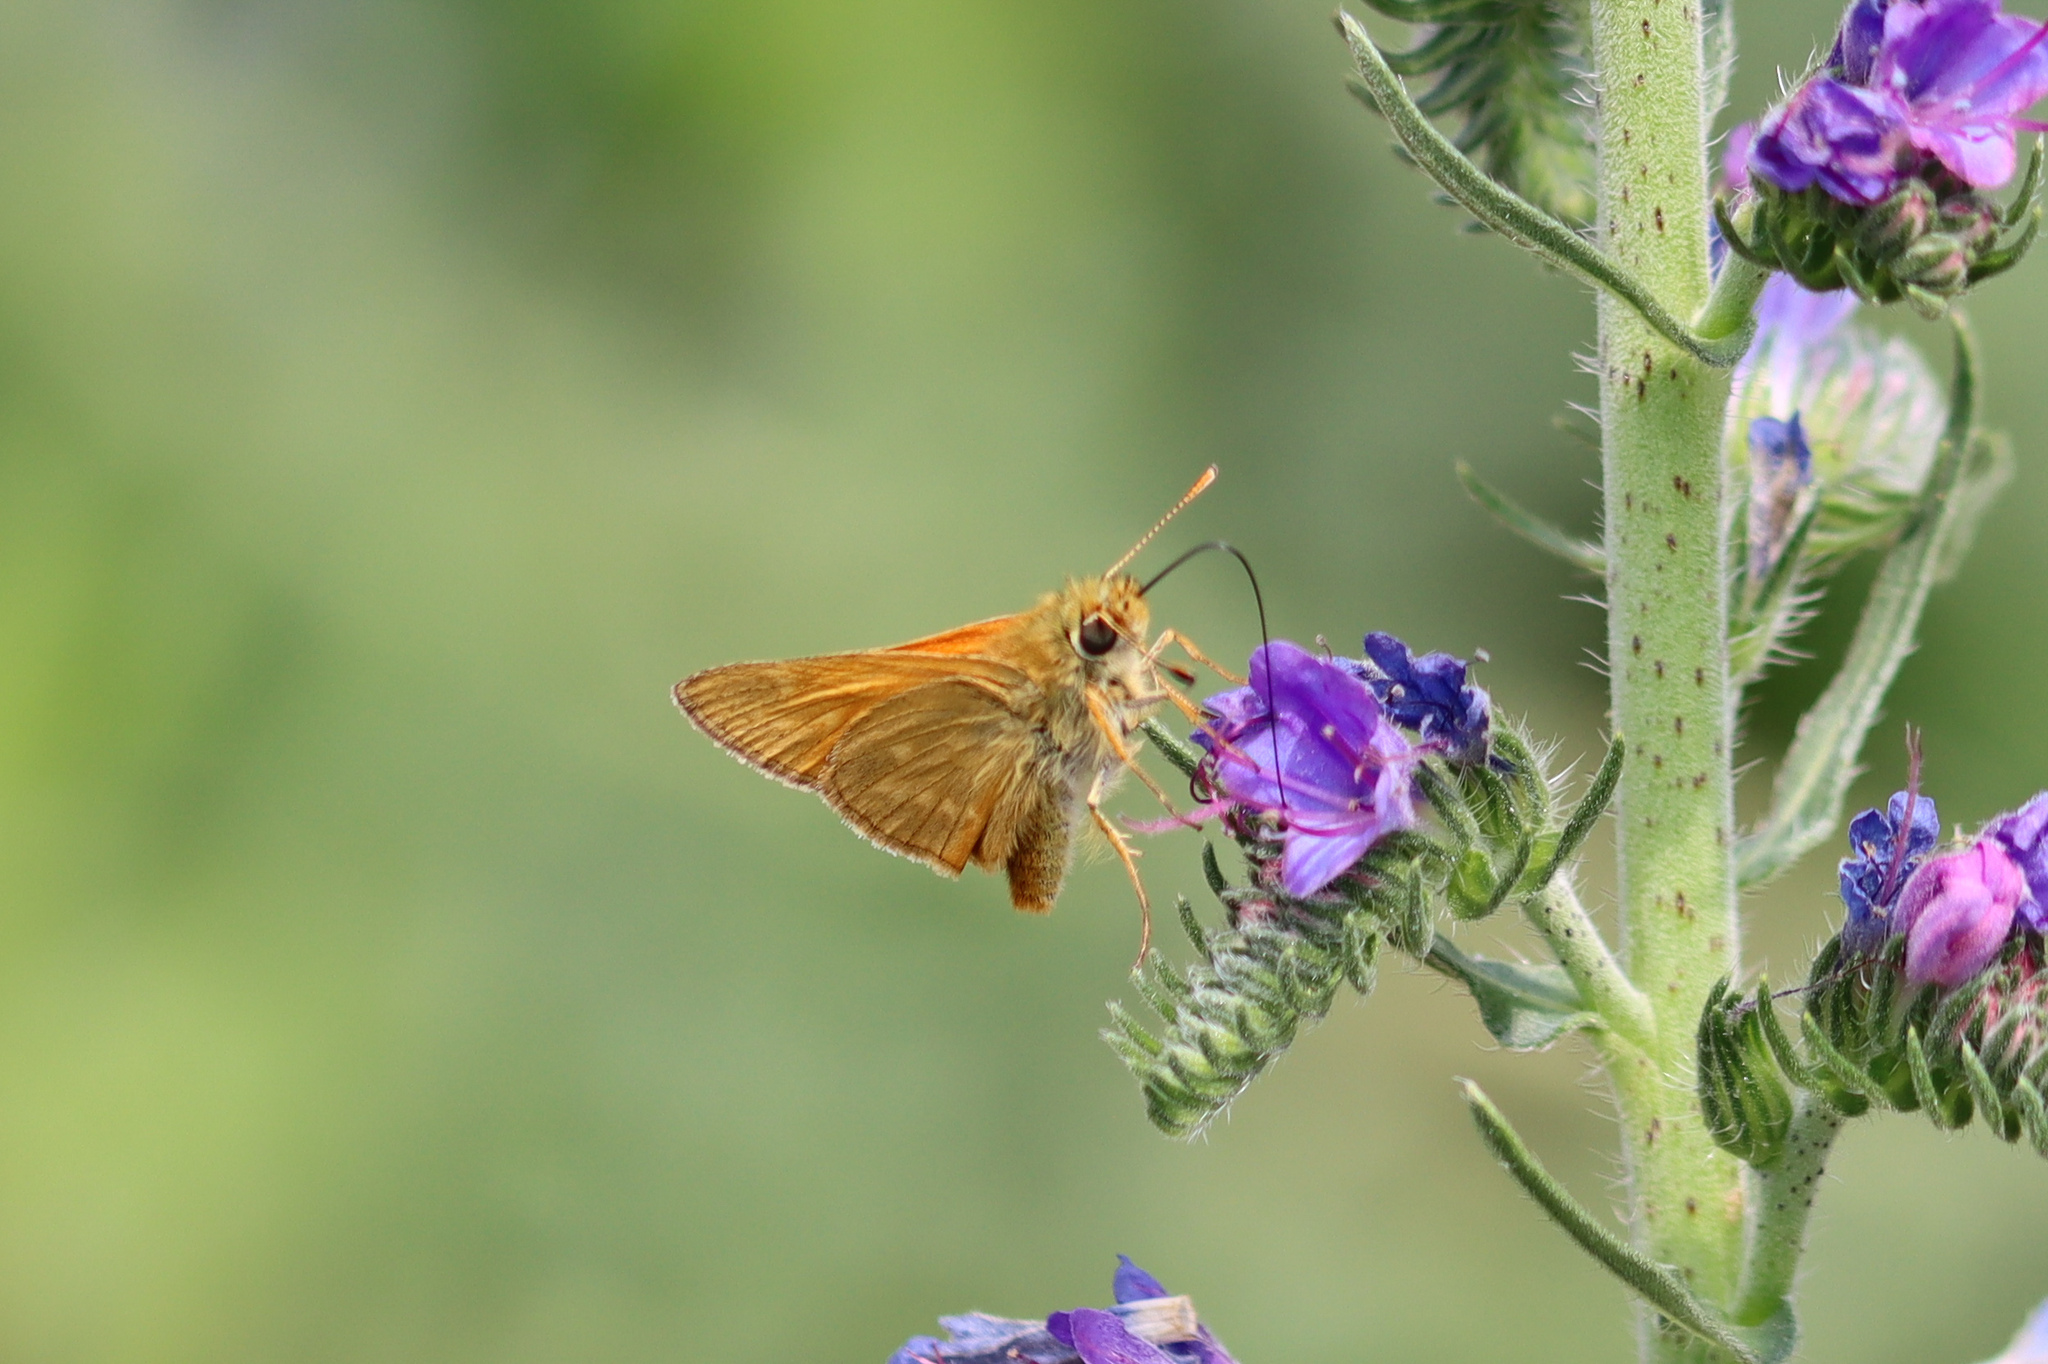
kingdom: Animalia
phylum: Arthropoda
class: Insecta
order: Lepidoptera
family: Hesperiidae
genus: Ochlodes
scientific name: Ochlodes venata
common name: Large skipper
